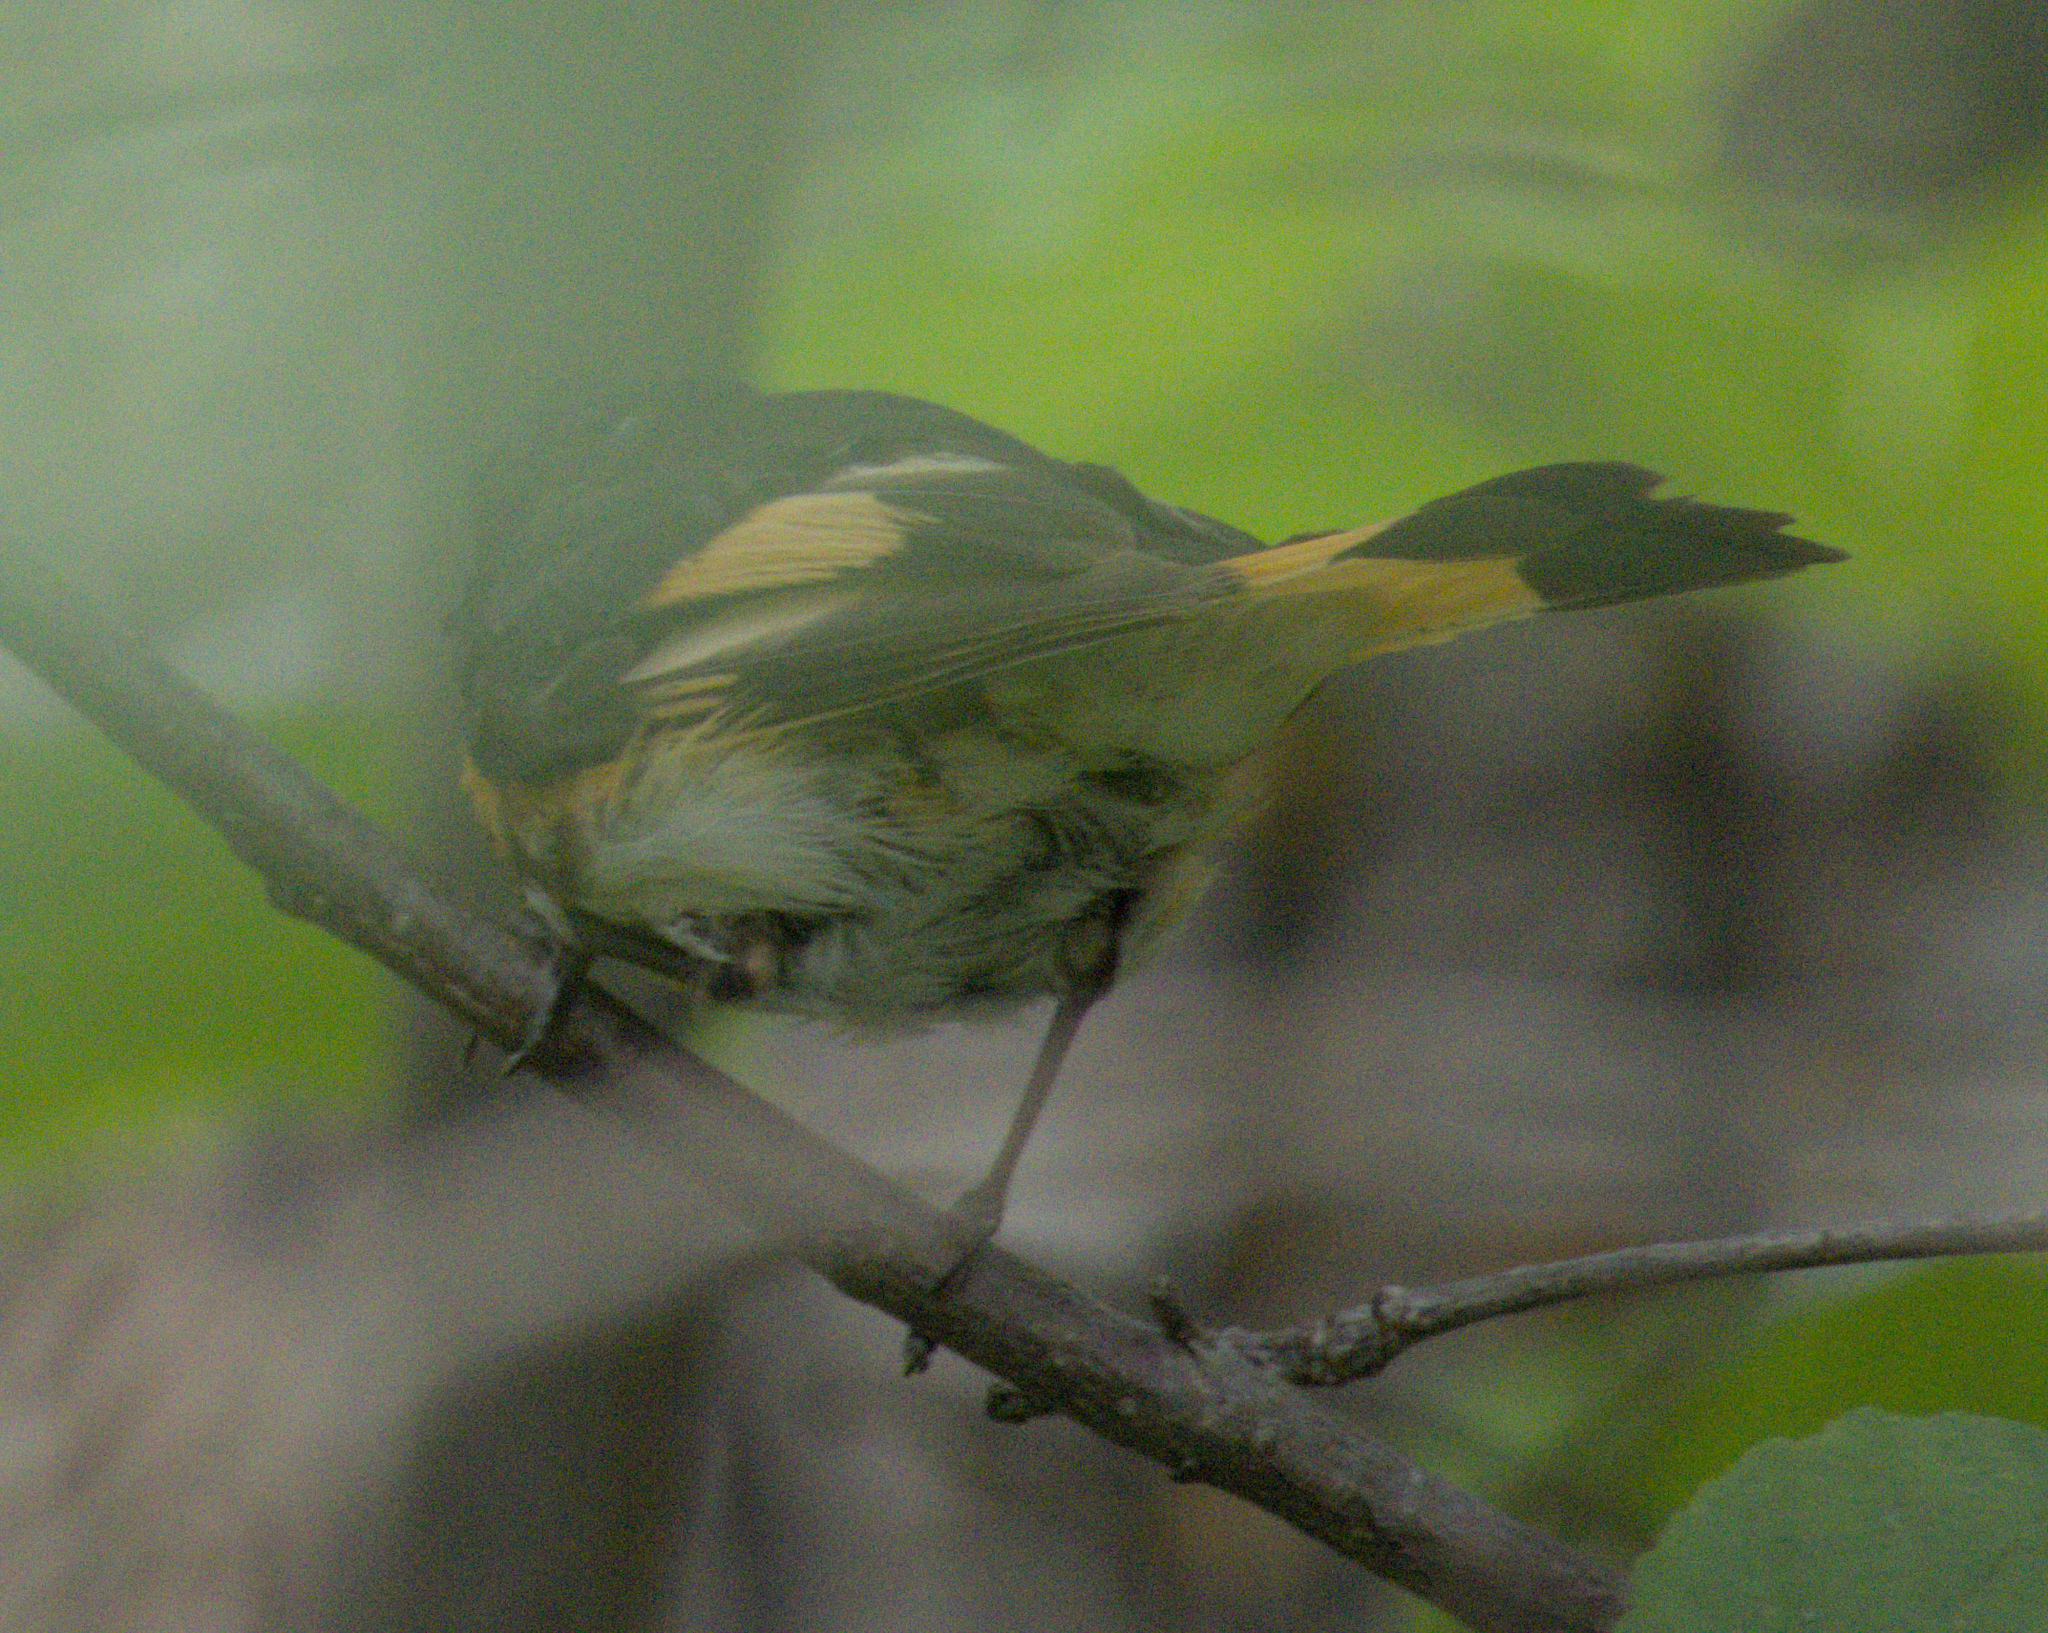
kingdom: Animalia
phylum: Chordata
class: Aves
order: Passeriformes
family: Parulidae
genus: Setophaga
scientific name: Setophaga ruticilla
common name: American redstart
